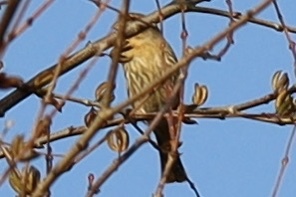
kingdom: Animalia
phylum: Chordata
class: Aves
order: Passeriformes
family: Fringillidae
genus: Haemorhous
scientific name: Haemorhous mexicanus
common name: House finch
